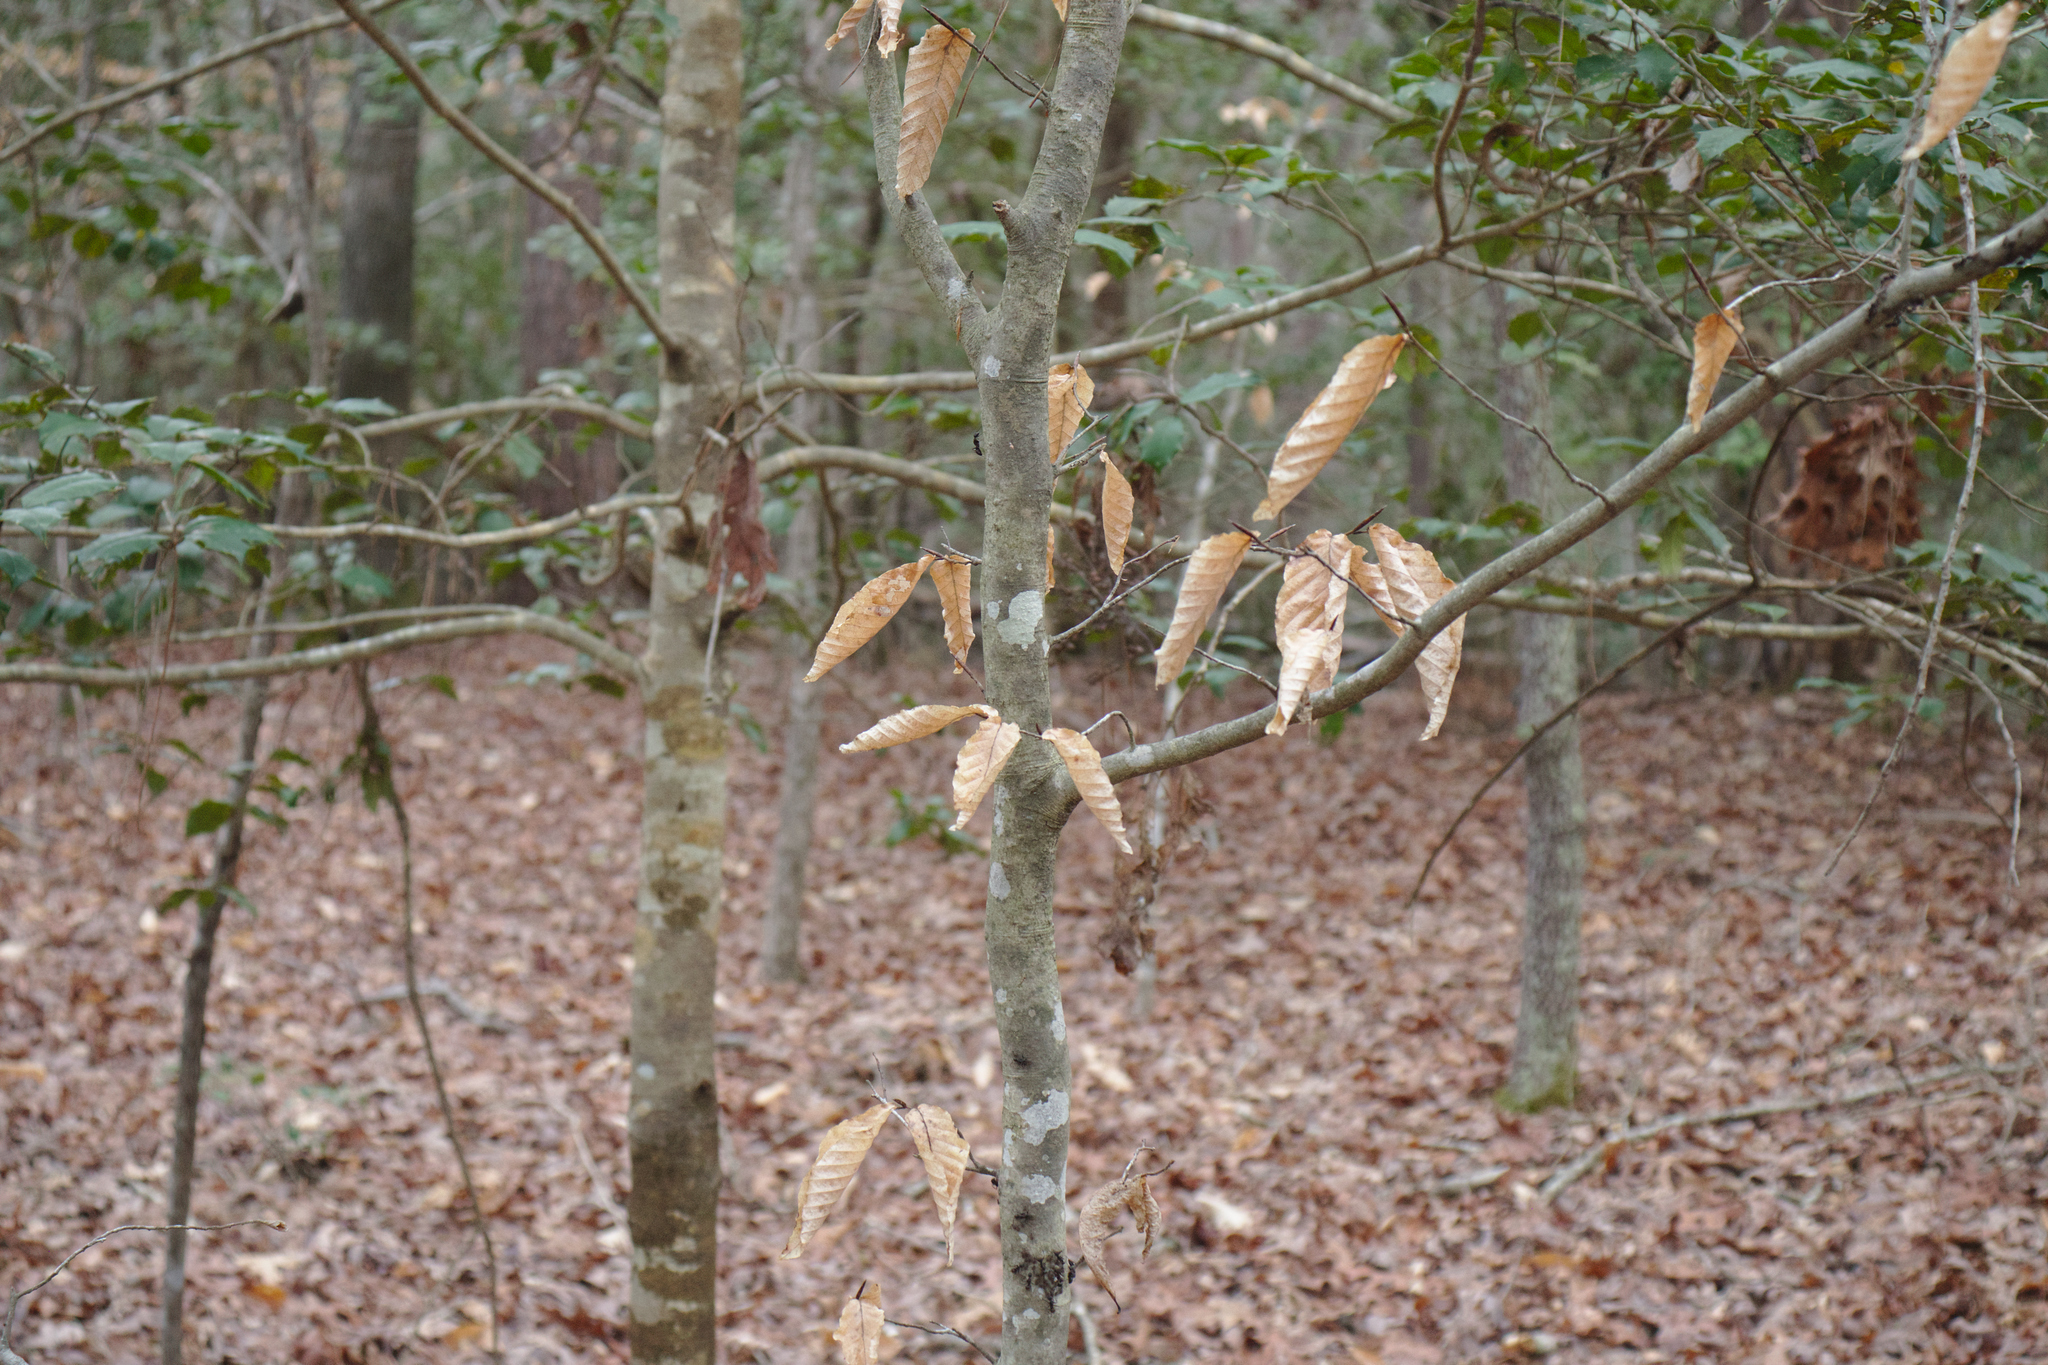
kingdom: Plantae
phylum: Tracheophyta
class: Magnoliopsida
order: Fagales
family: Fagaceae
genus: Fagus
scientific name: Fagus grandifolia
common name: American beech
